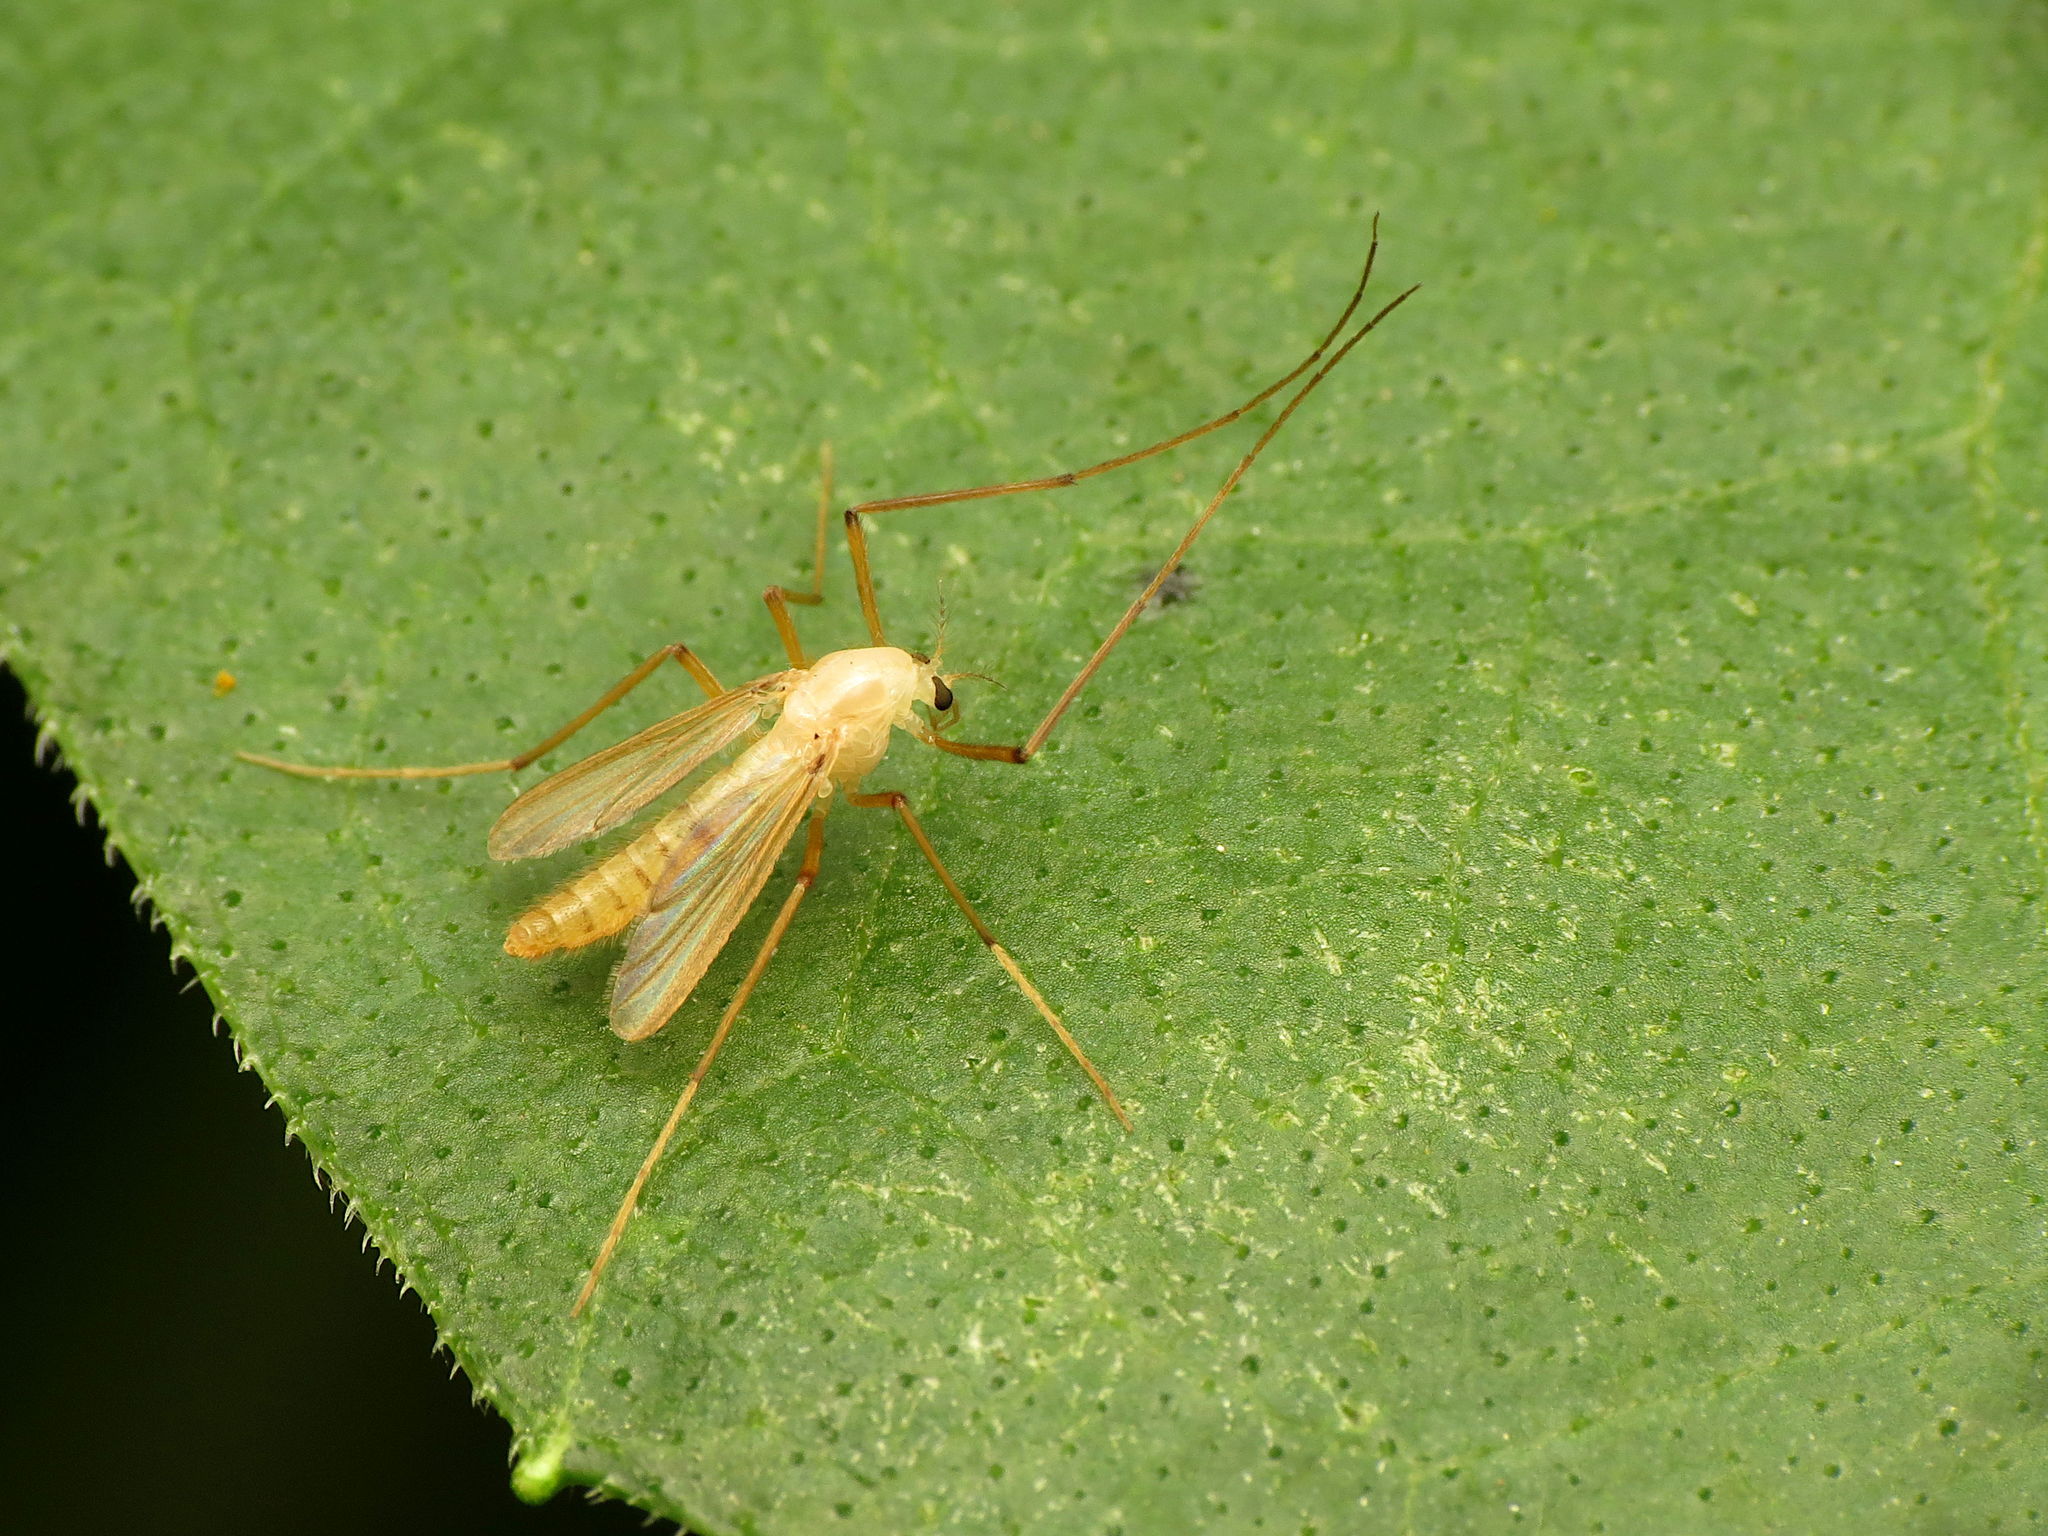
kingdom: Animalia
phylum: Arthropoda
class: Insecta
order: Diptera
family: Chironomidae
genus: Xylotopus
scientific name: Xylotopus par
